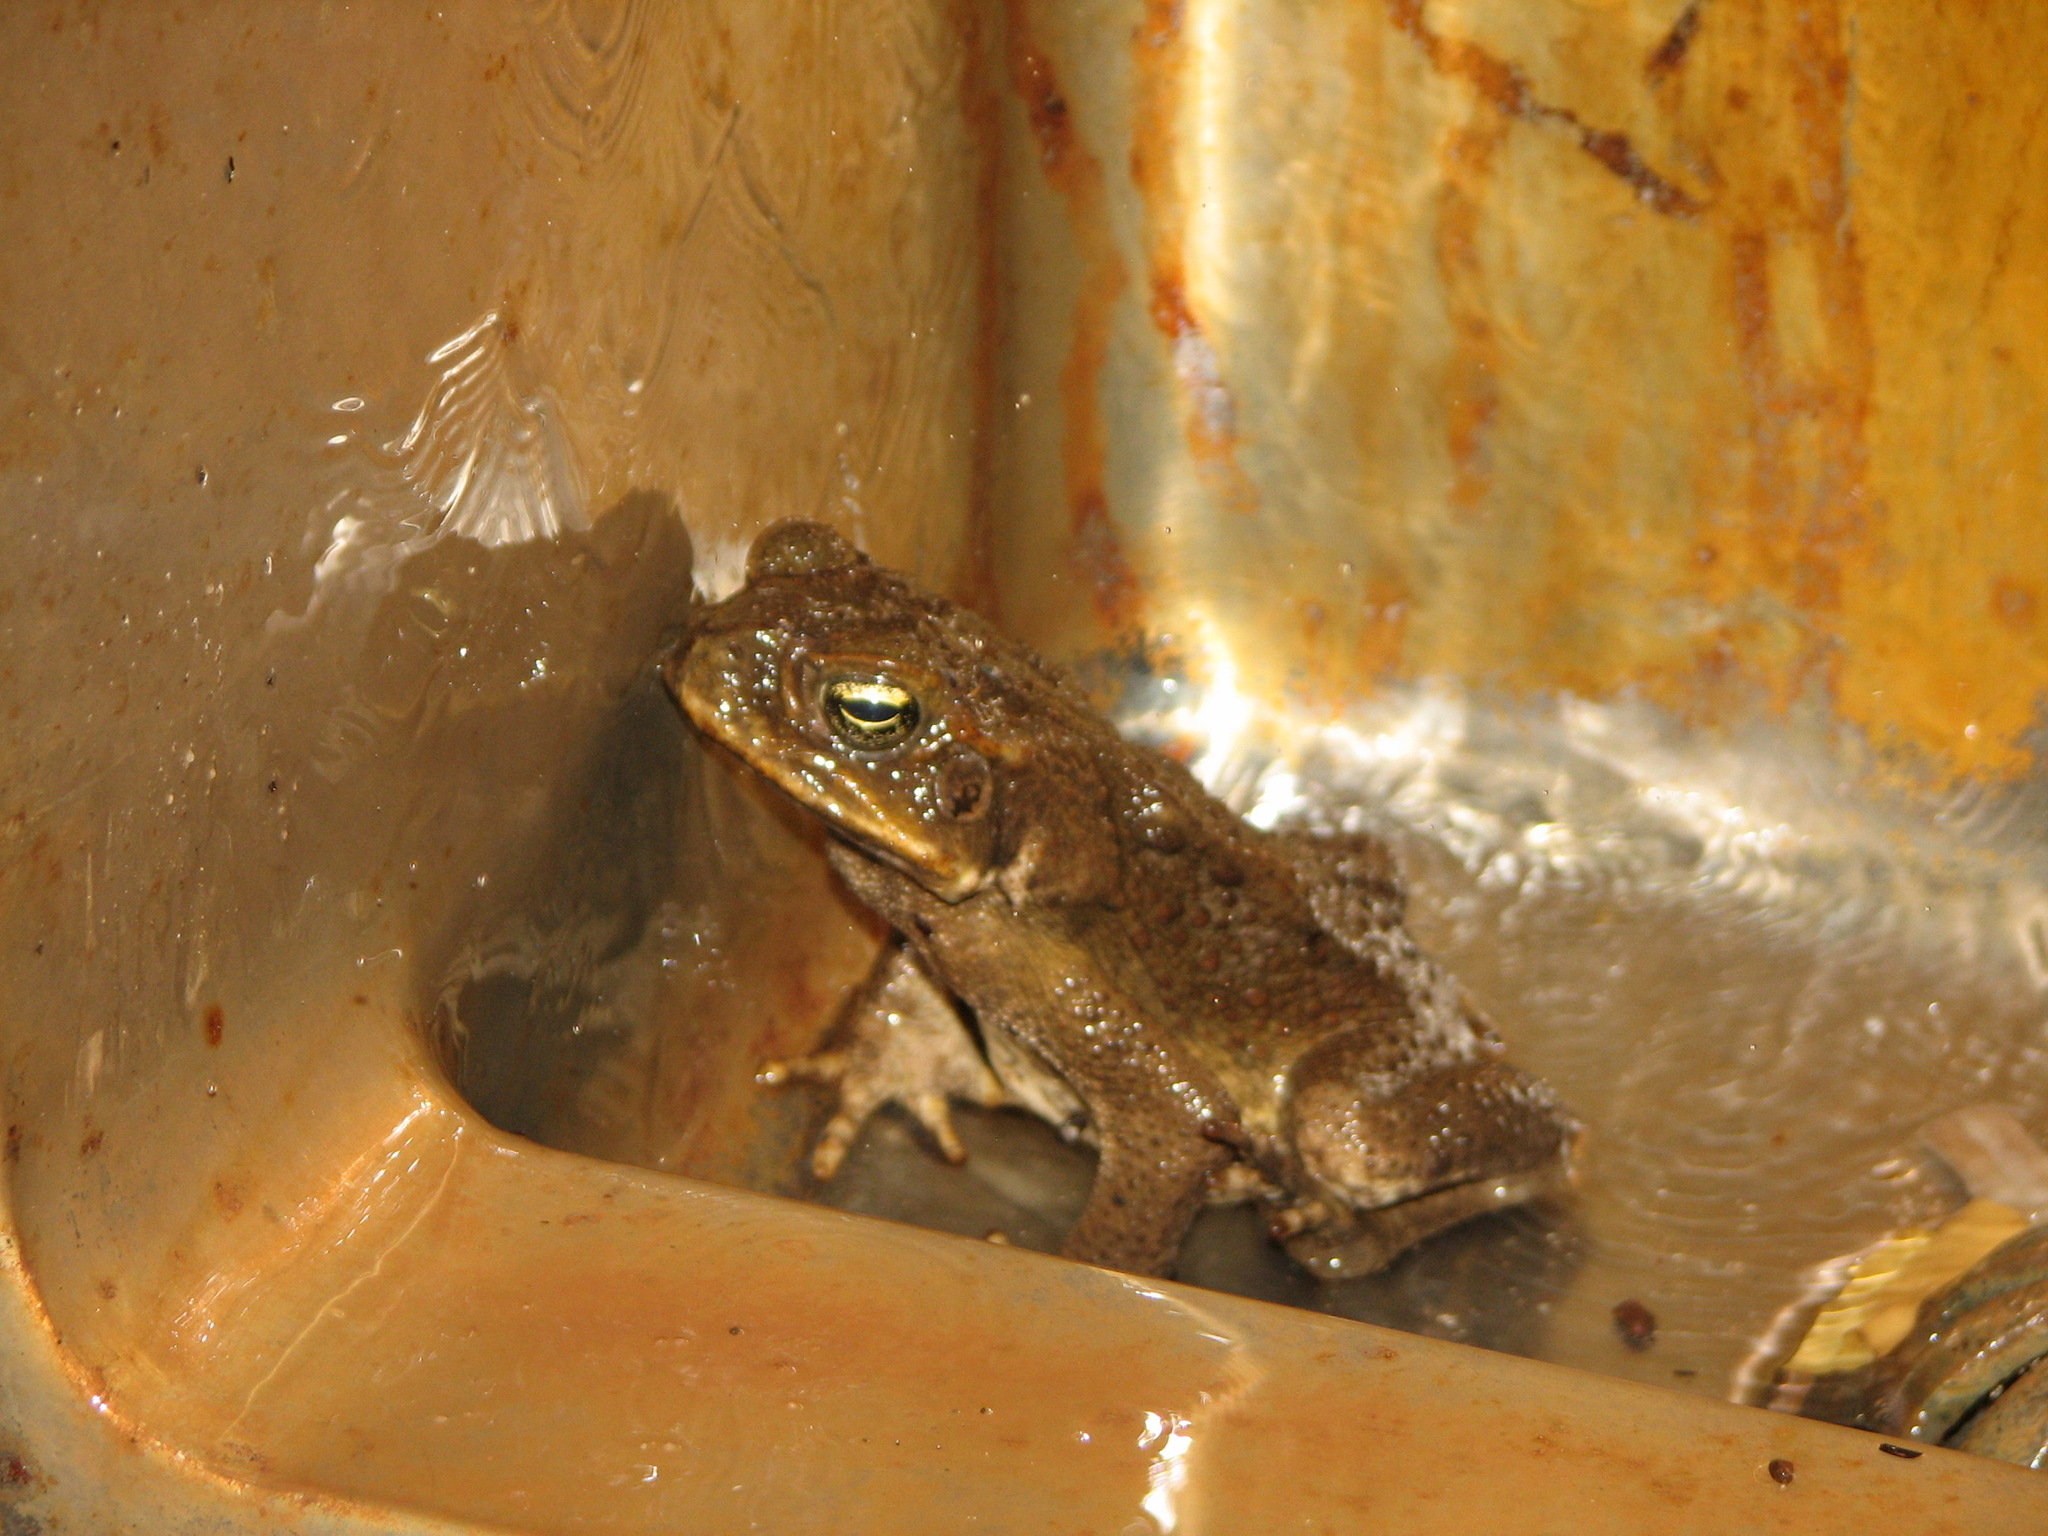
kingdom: Animalia
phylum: Chordata
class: Amphibia
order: Anura
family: Bufonidae
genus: Rhinella
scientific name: Rhinella marina
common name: Cane toad
